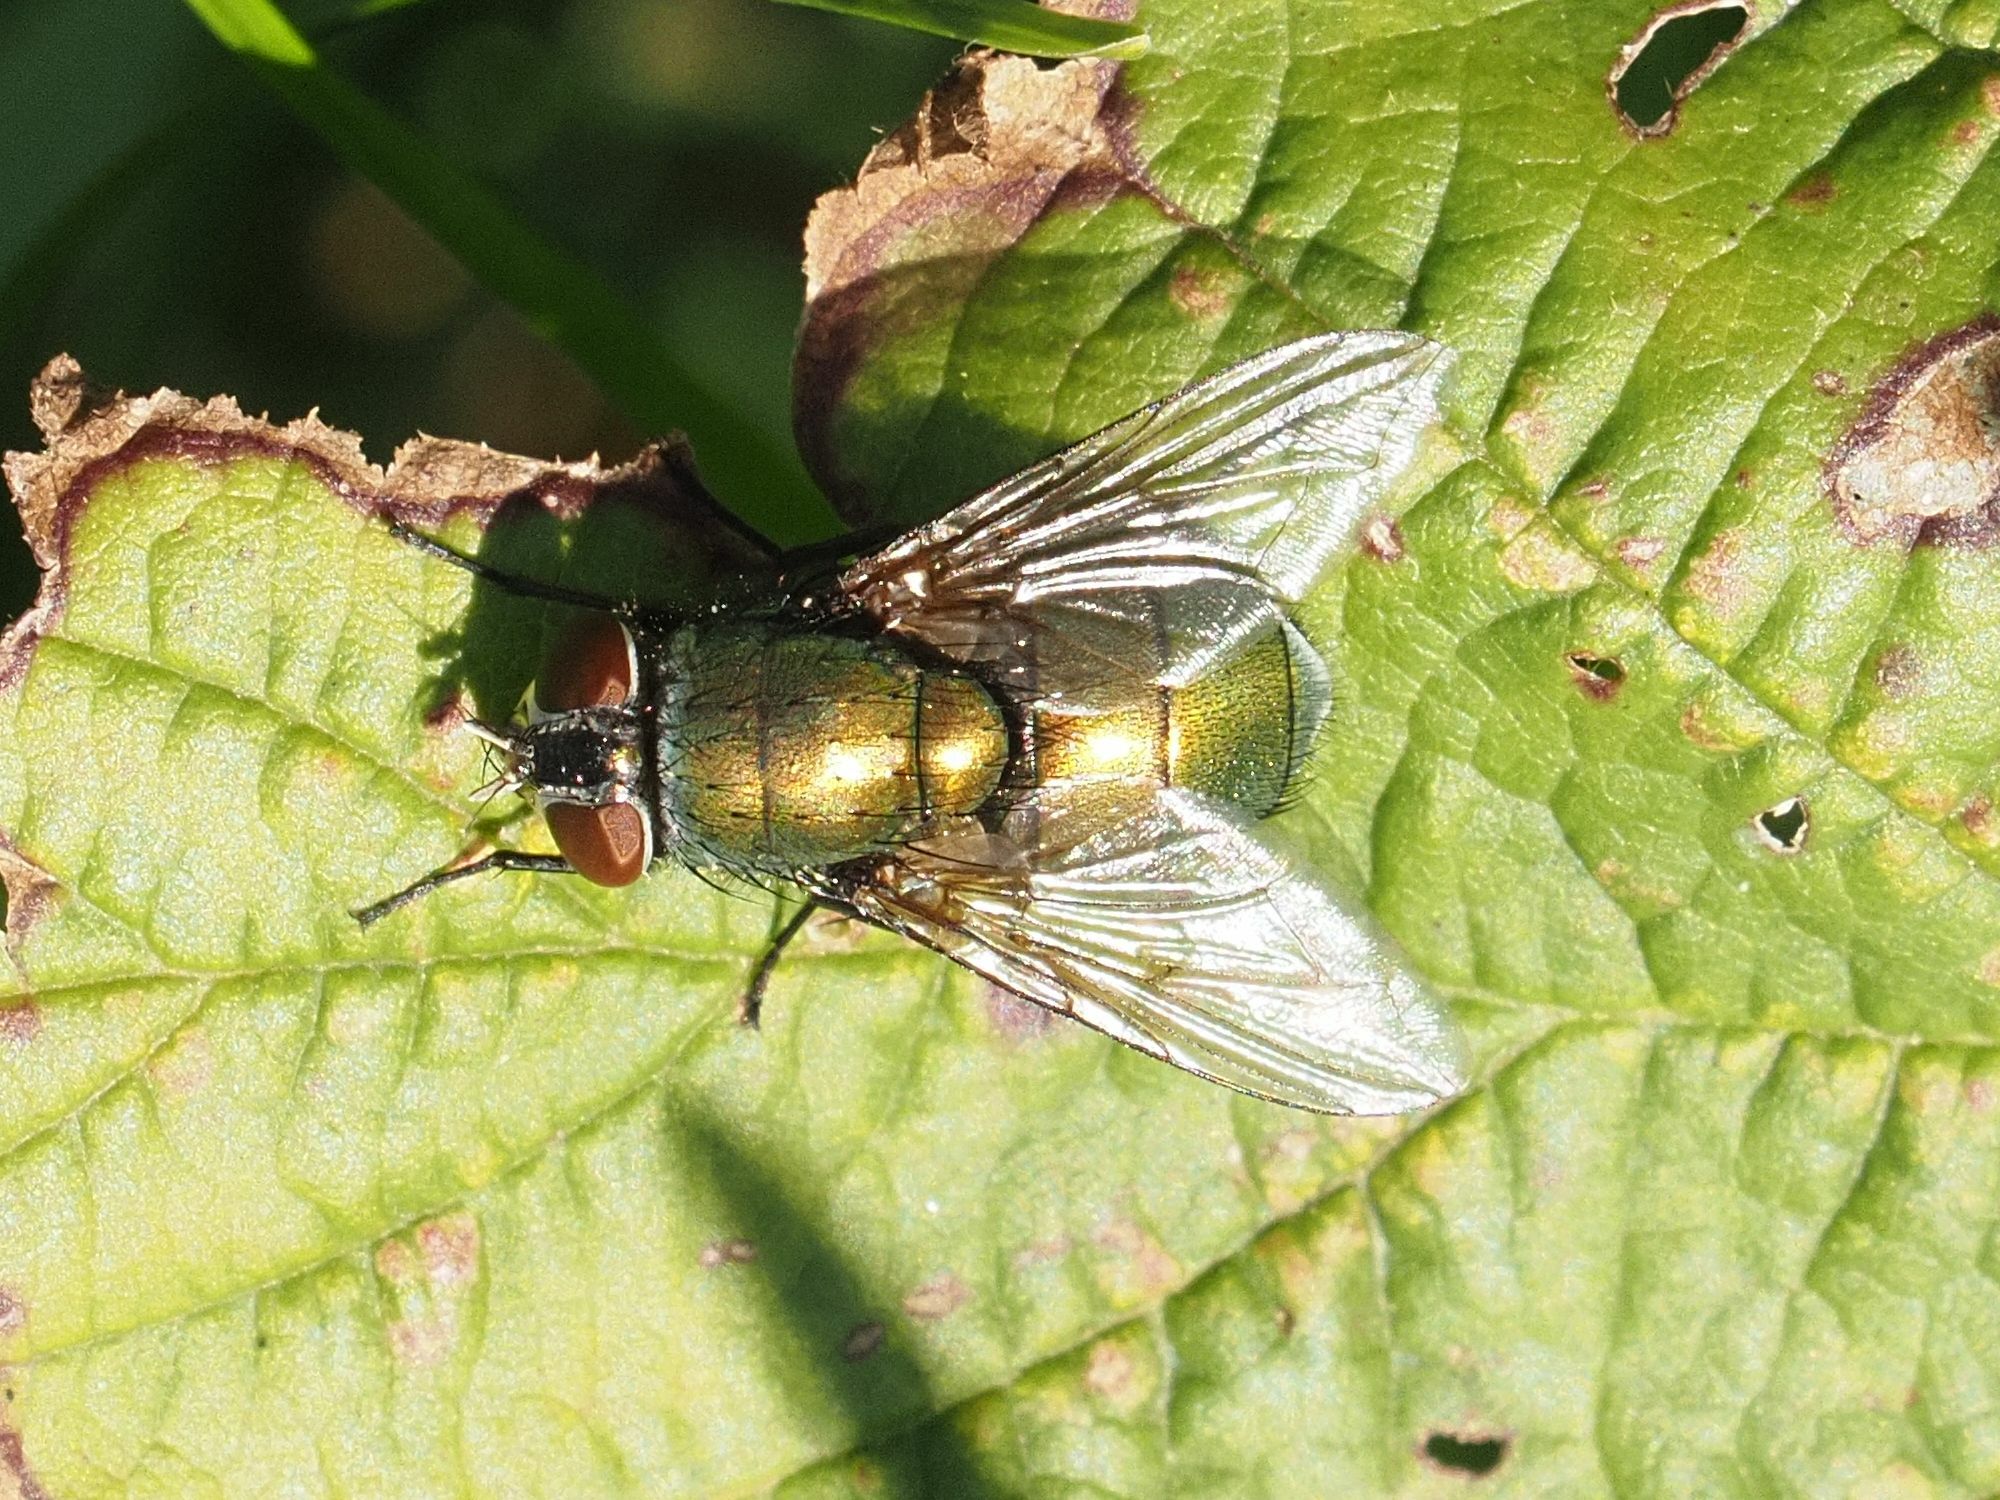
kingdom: Animalia
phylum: Arthropoda
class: Insecta
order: Diptera
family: Calliphoridae
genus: Lucilia
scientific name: Lucilia
